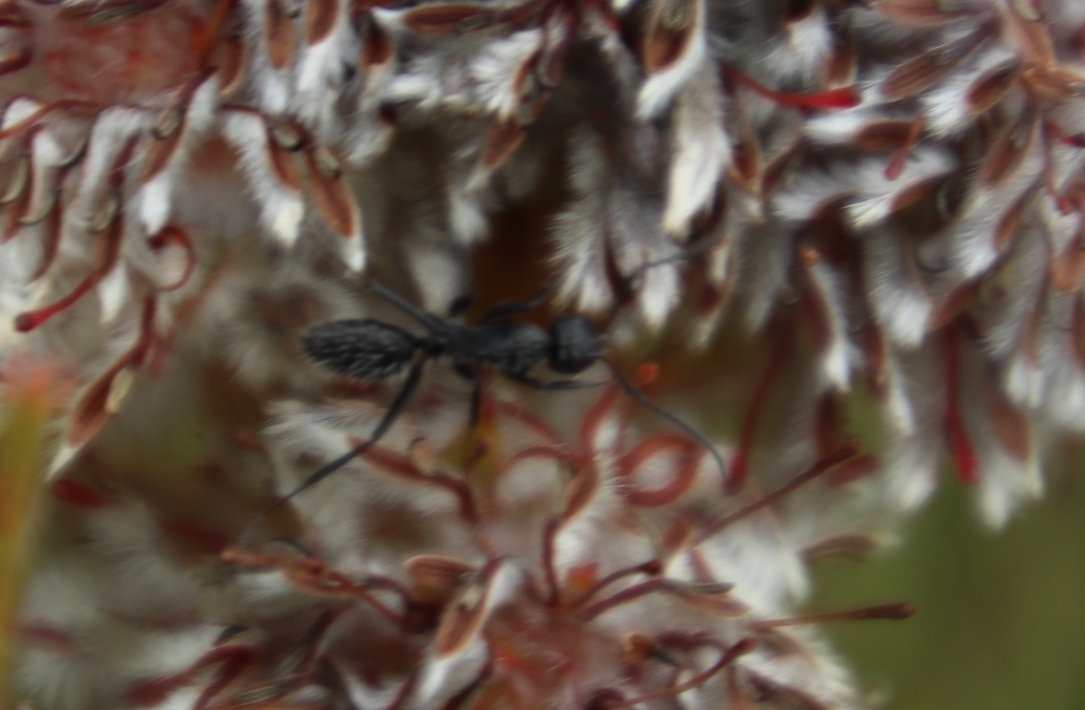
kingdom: Animalia
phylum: Arthropoda
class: Insecta
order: Hymenoptera
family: Formicidae
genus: Camponotus
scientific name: Camponotus niveosetosus
